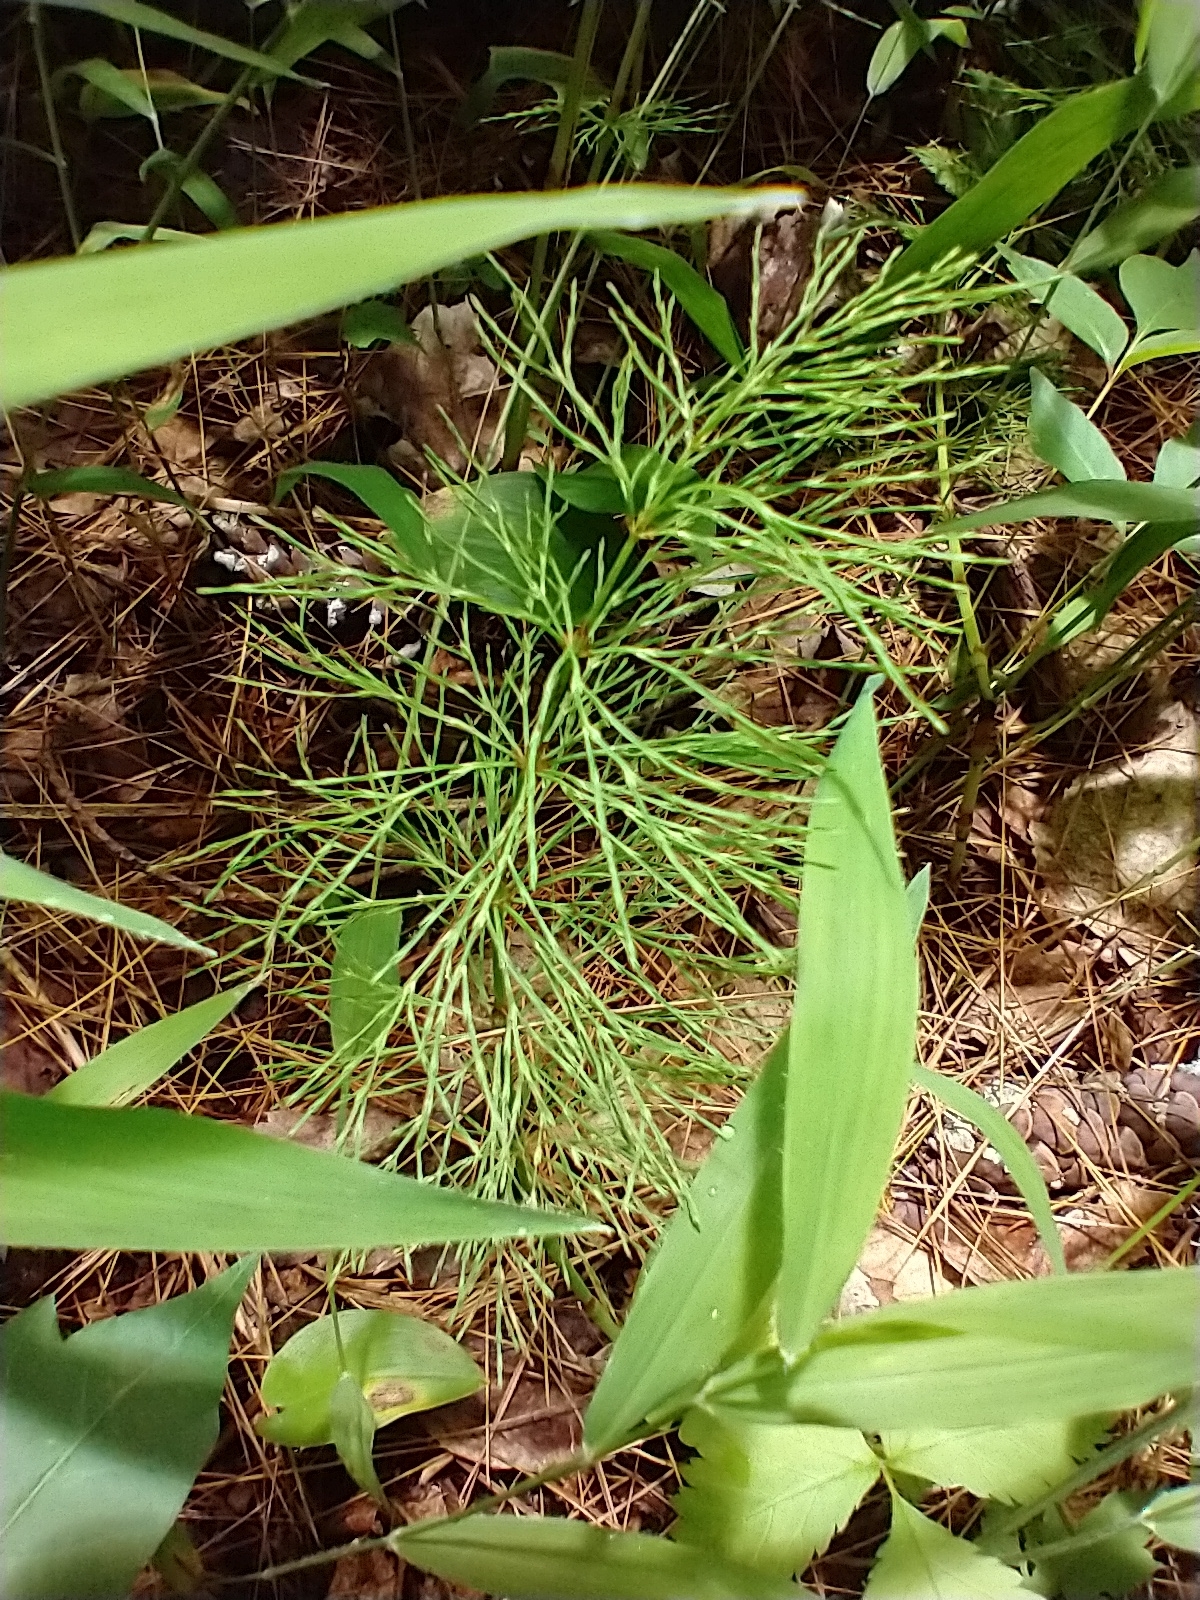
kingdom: Plantae
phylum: Tracheophyta
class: Polypodiopsida
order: Equisetales
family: Equisetaceae
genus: Equisetum
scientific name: Equisetum sylvaticum
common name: Wood horsetail
